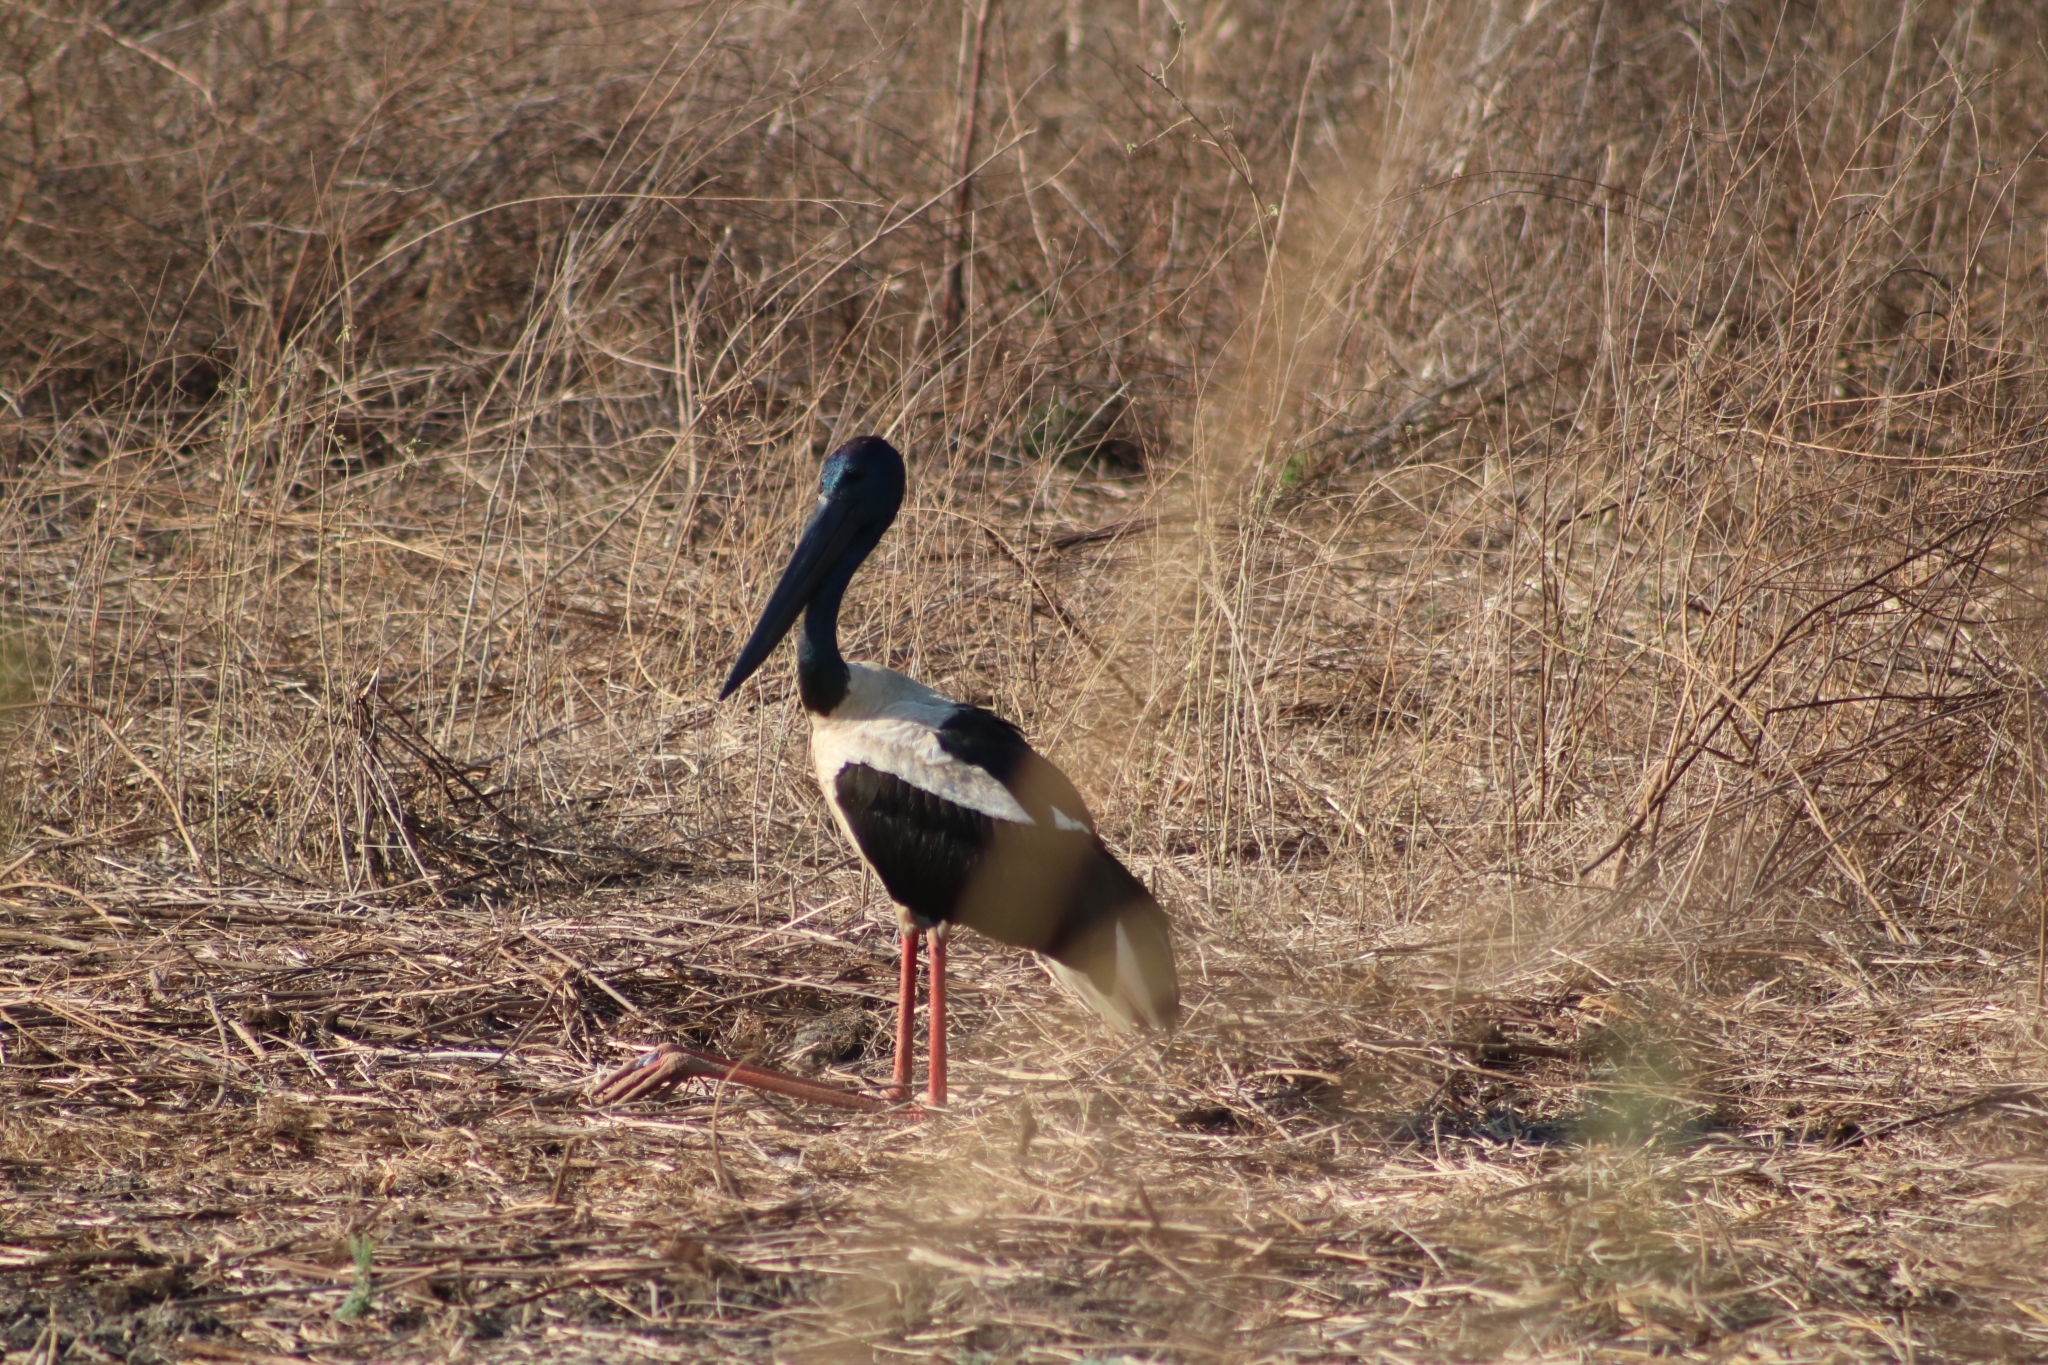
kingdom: Animalia
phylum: Chordata
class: Aves
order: Ciconiiformes
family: Ciconiidae
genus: Ephippiorhynchus
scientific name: Ephippiorhynchus asiaticus
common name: Black-necked stork
